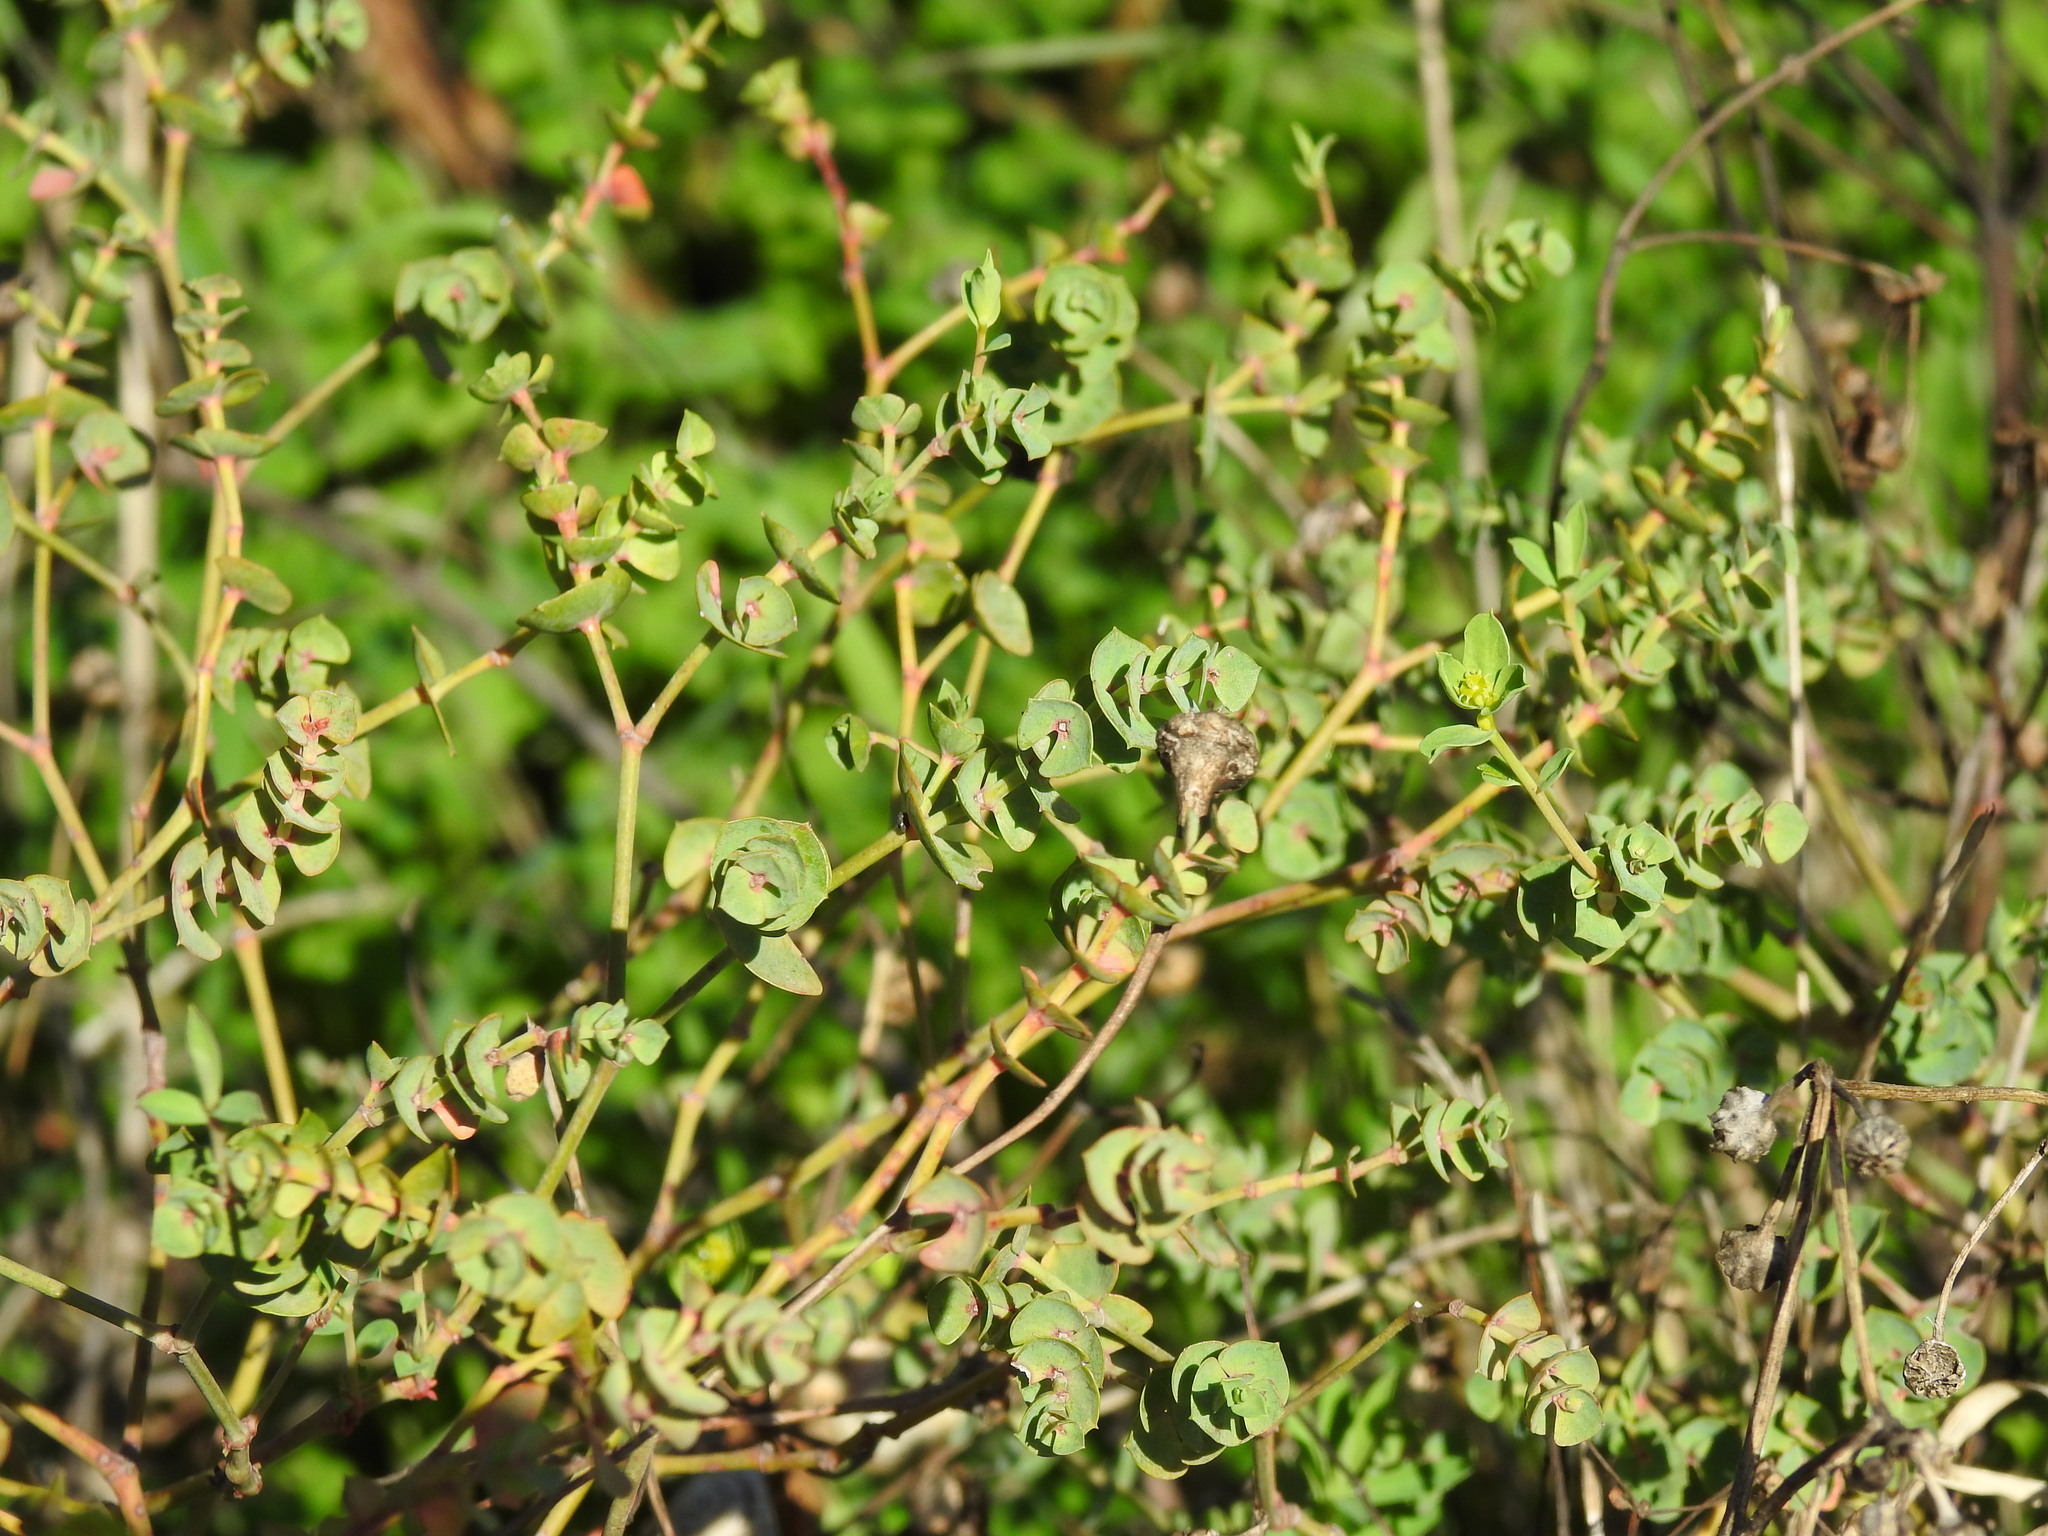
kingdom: Plantae
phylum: Tracheophyta
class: Magnoliopsida
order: Malpighiales
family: Euphorbiaceae
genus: Euphorbia
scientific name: Euphorbia segetalis
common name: Corn spurge
